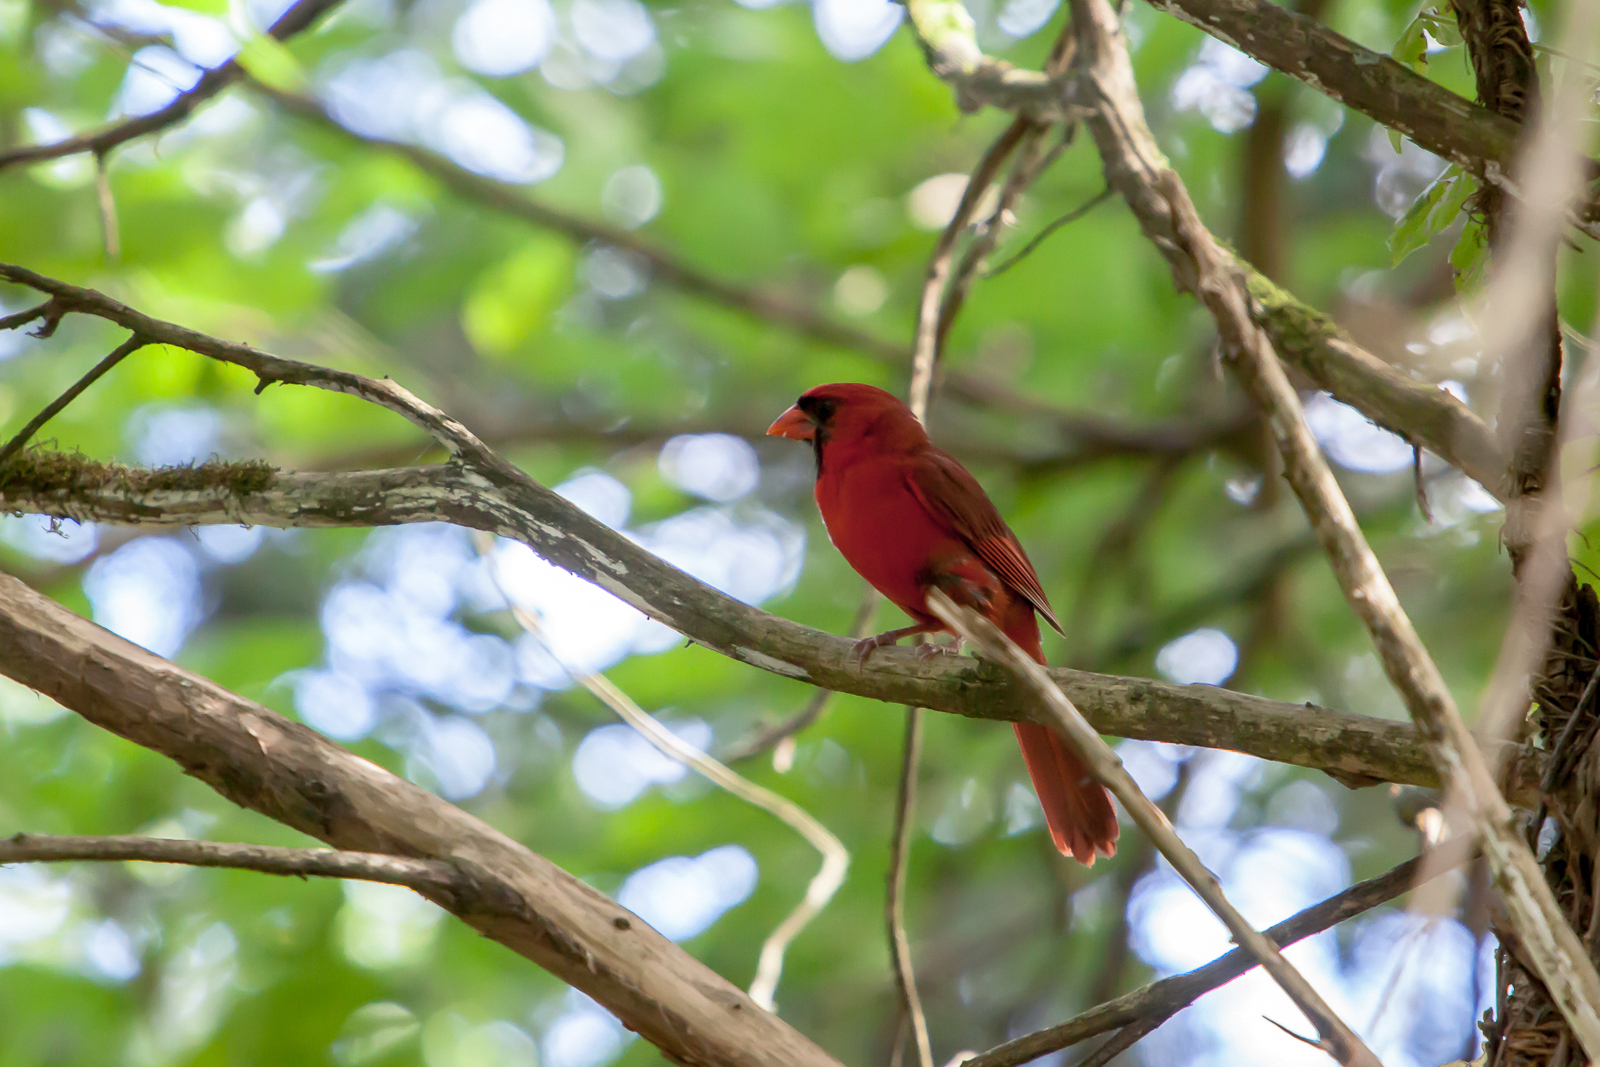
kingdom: Animalia
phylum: Chordata
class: Aves
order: Passeriformes
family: Cardinalidae
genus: Cardinalis
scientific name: Cardinalis cardinalis
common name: Northern cardinal
